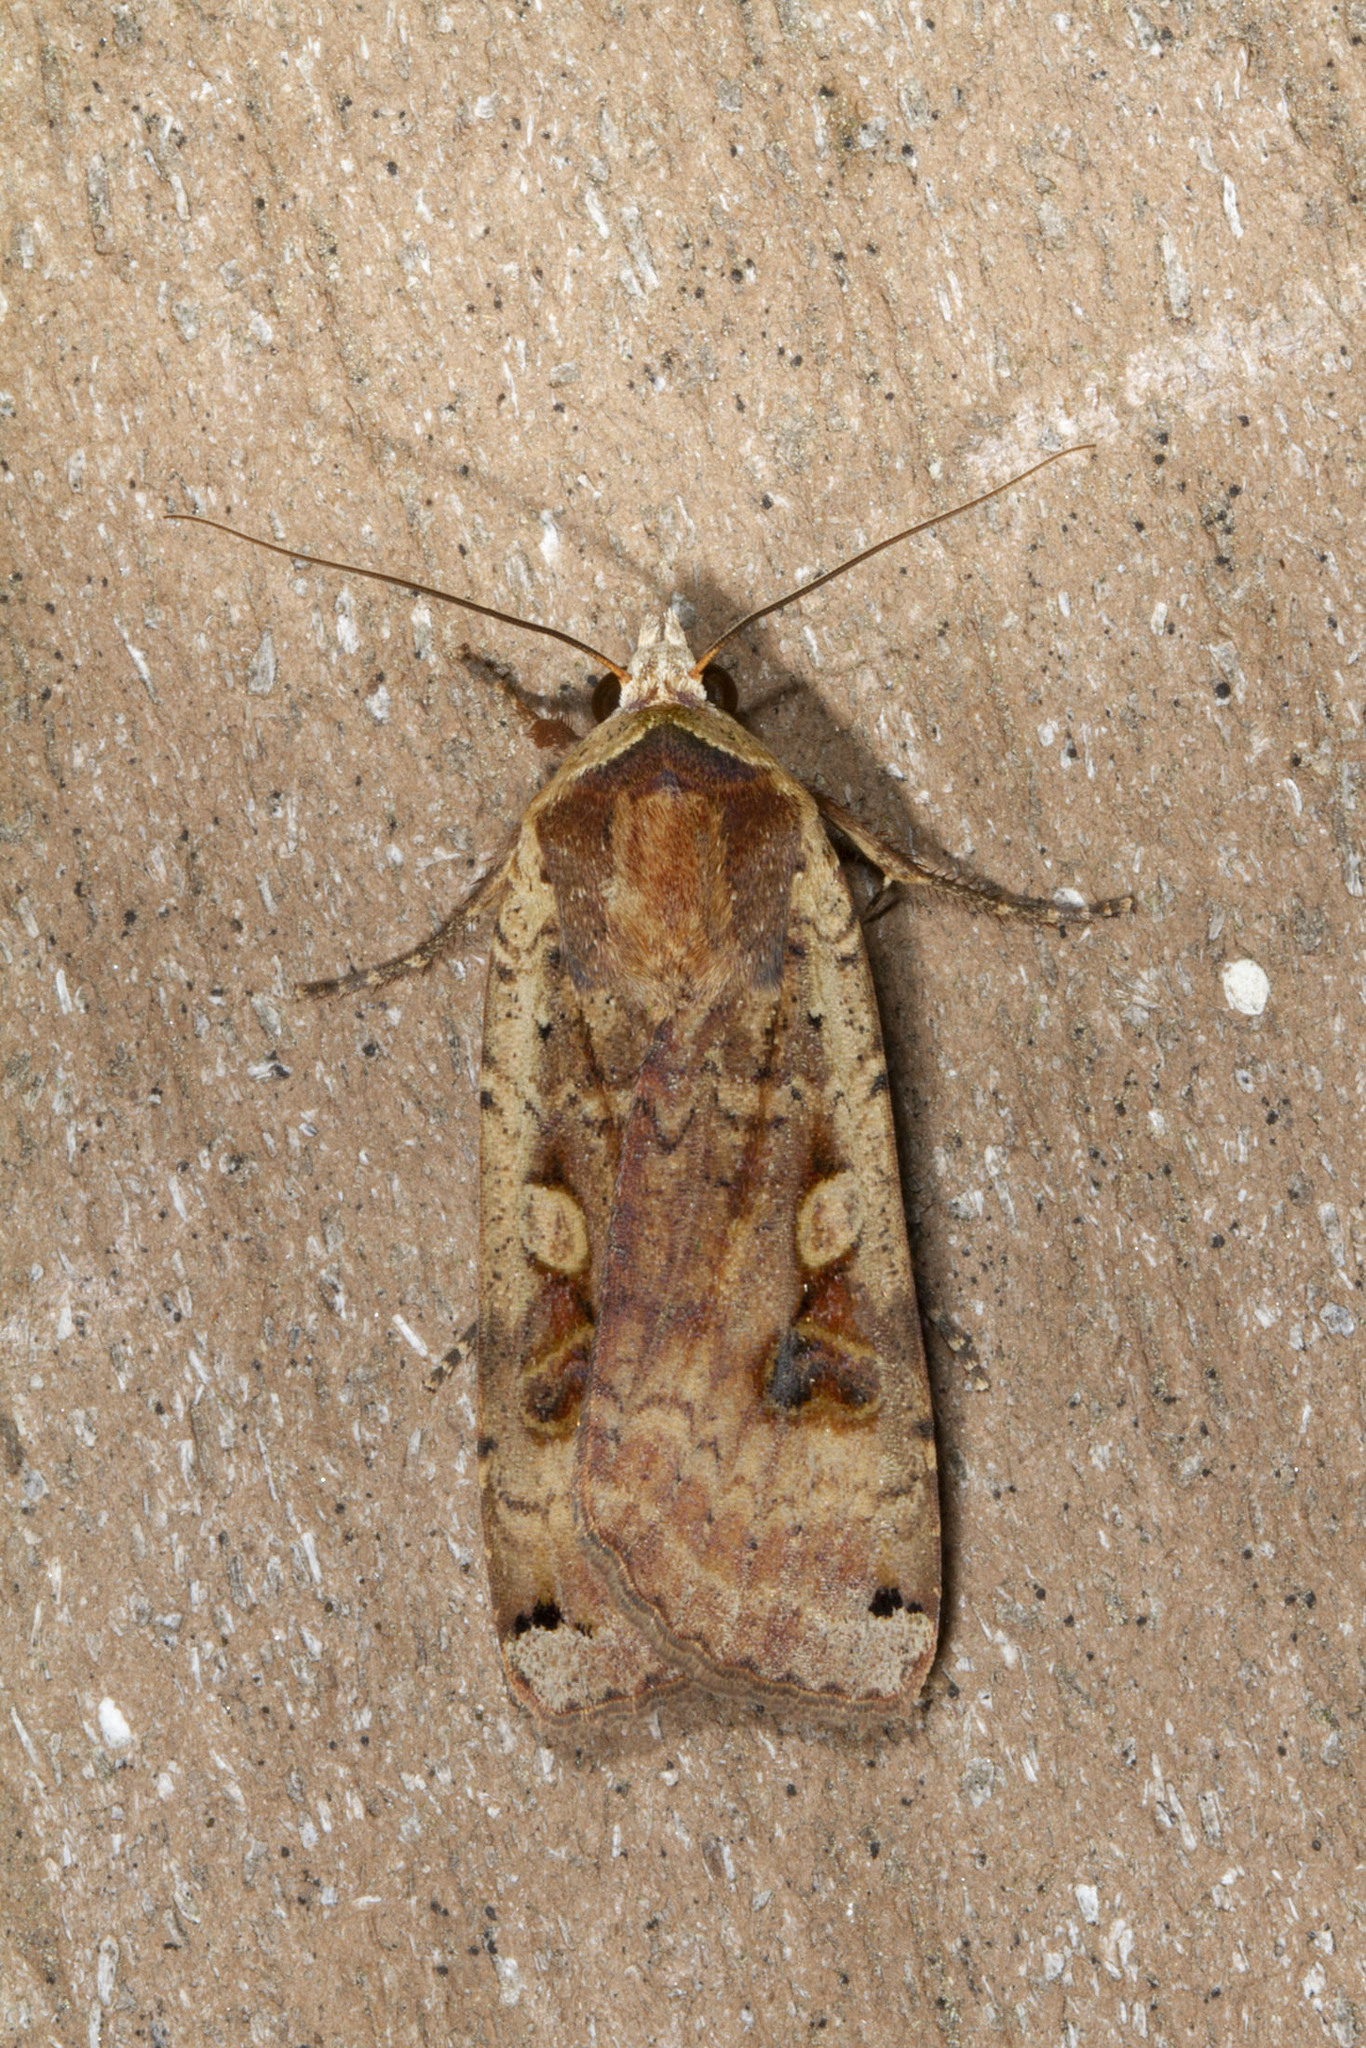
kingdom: Animalia
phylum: Arthropoda
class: Insecta
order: Lepidoptera
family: Noctuidae
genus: Noctua
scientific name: Noctua pronuba
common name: Large yellow underwing
